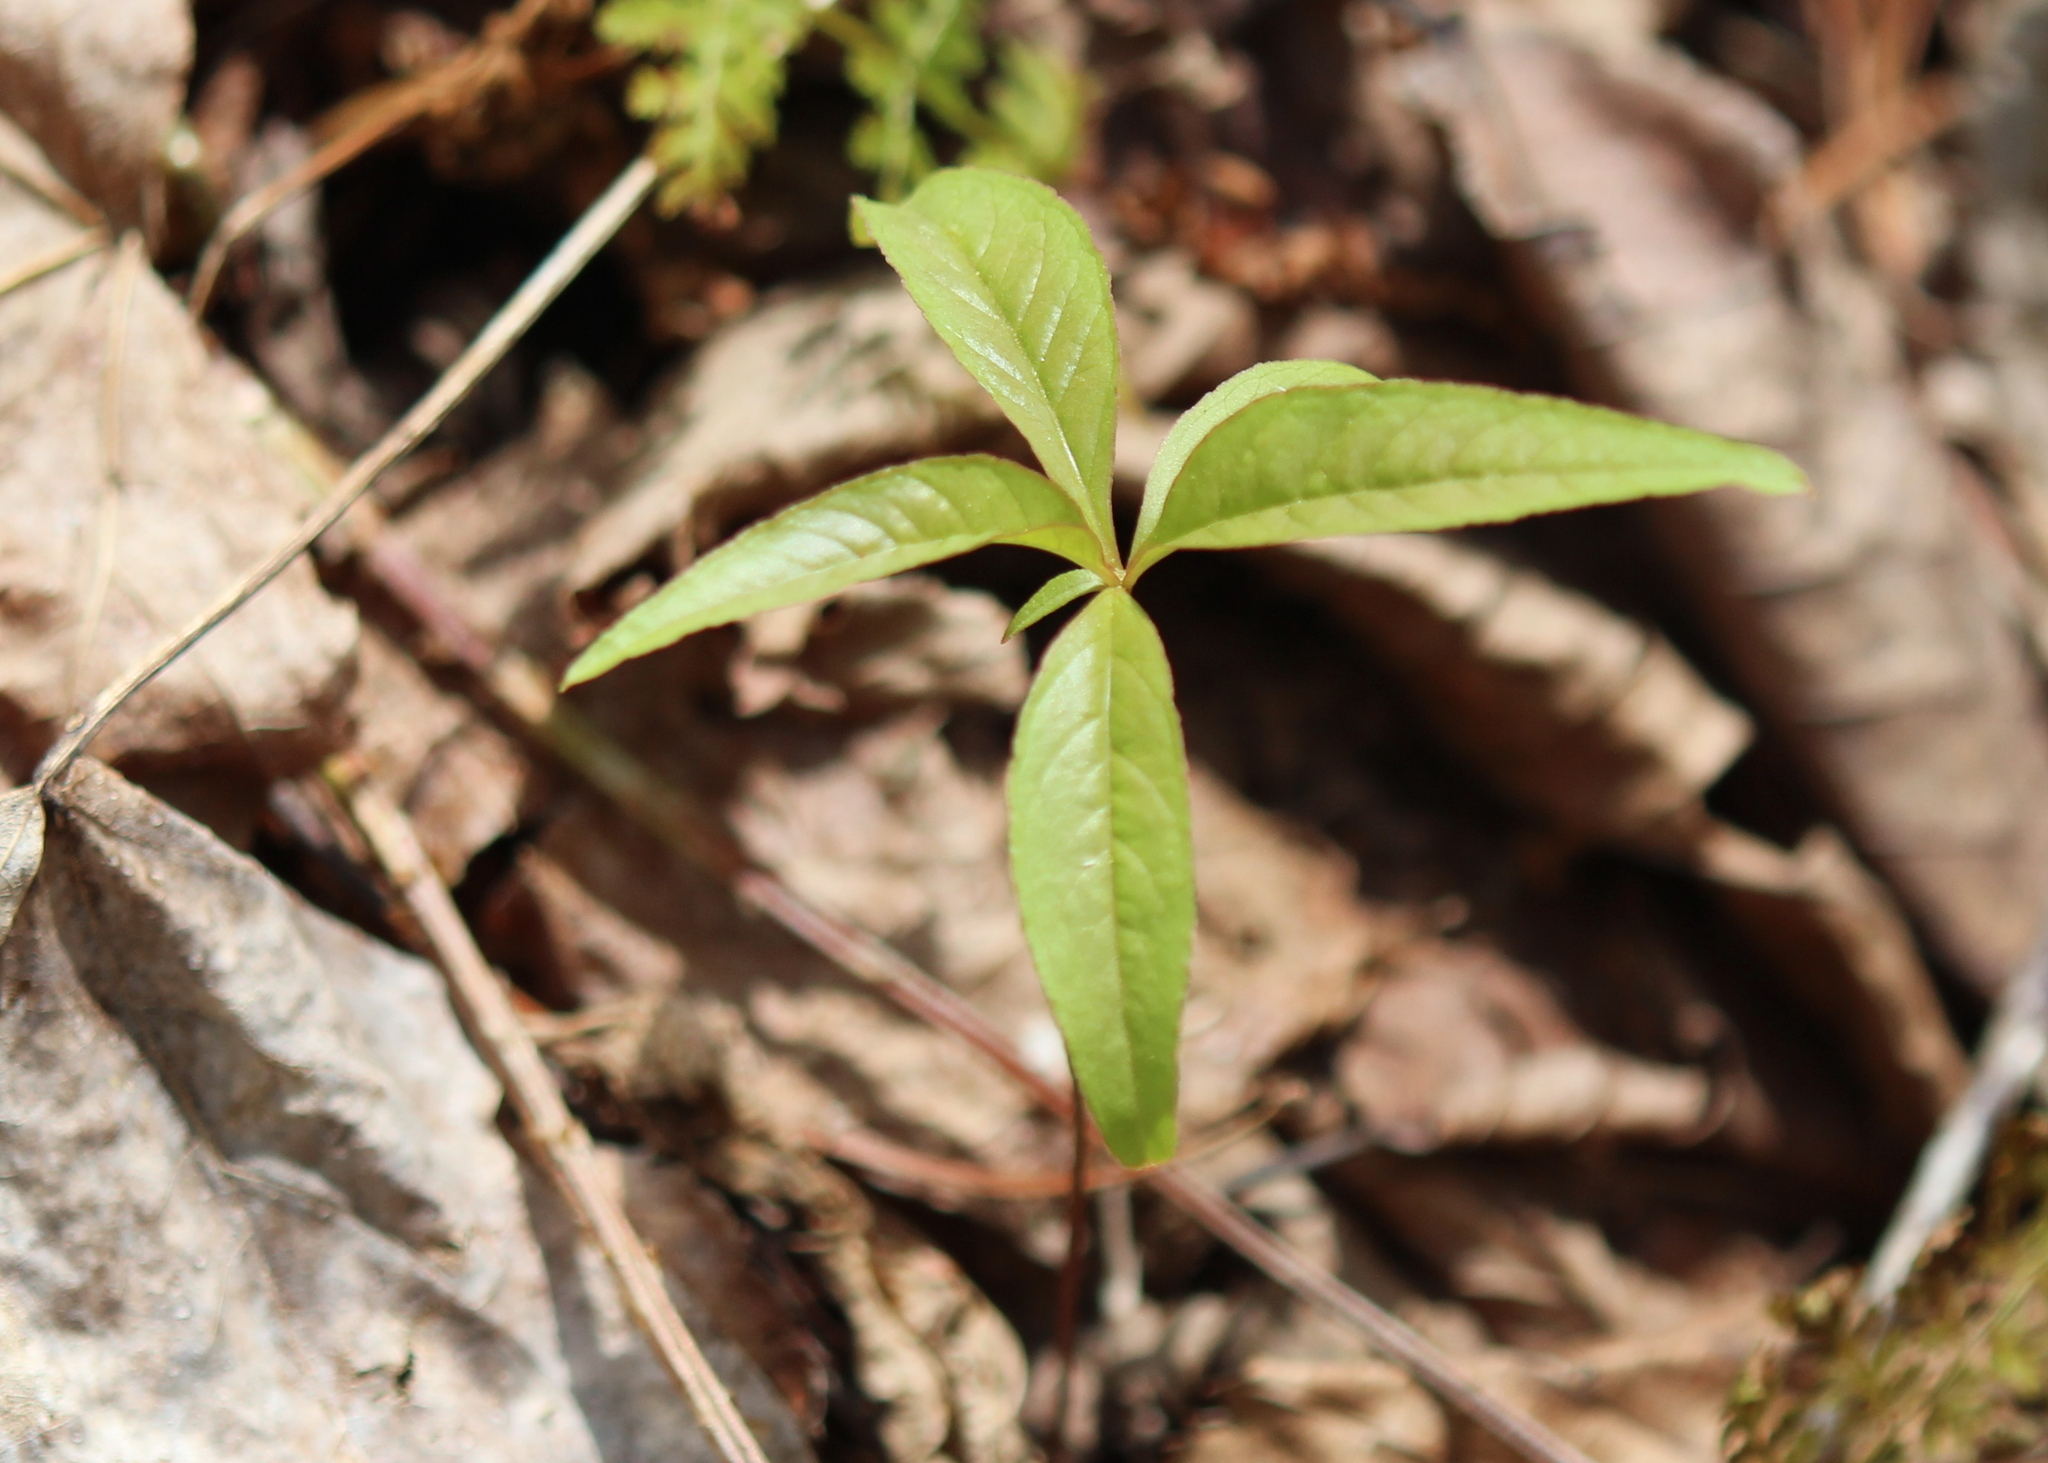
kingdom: Plantae
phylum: Tracheophyta
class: Magnoliopsida
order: Ericales
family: Primulaceae
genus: Lysimachia
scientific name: Lysimachia borealis
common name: American starflower
